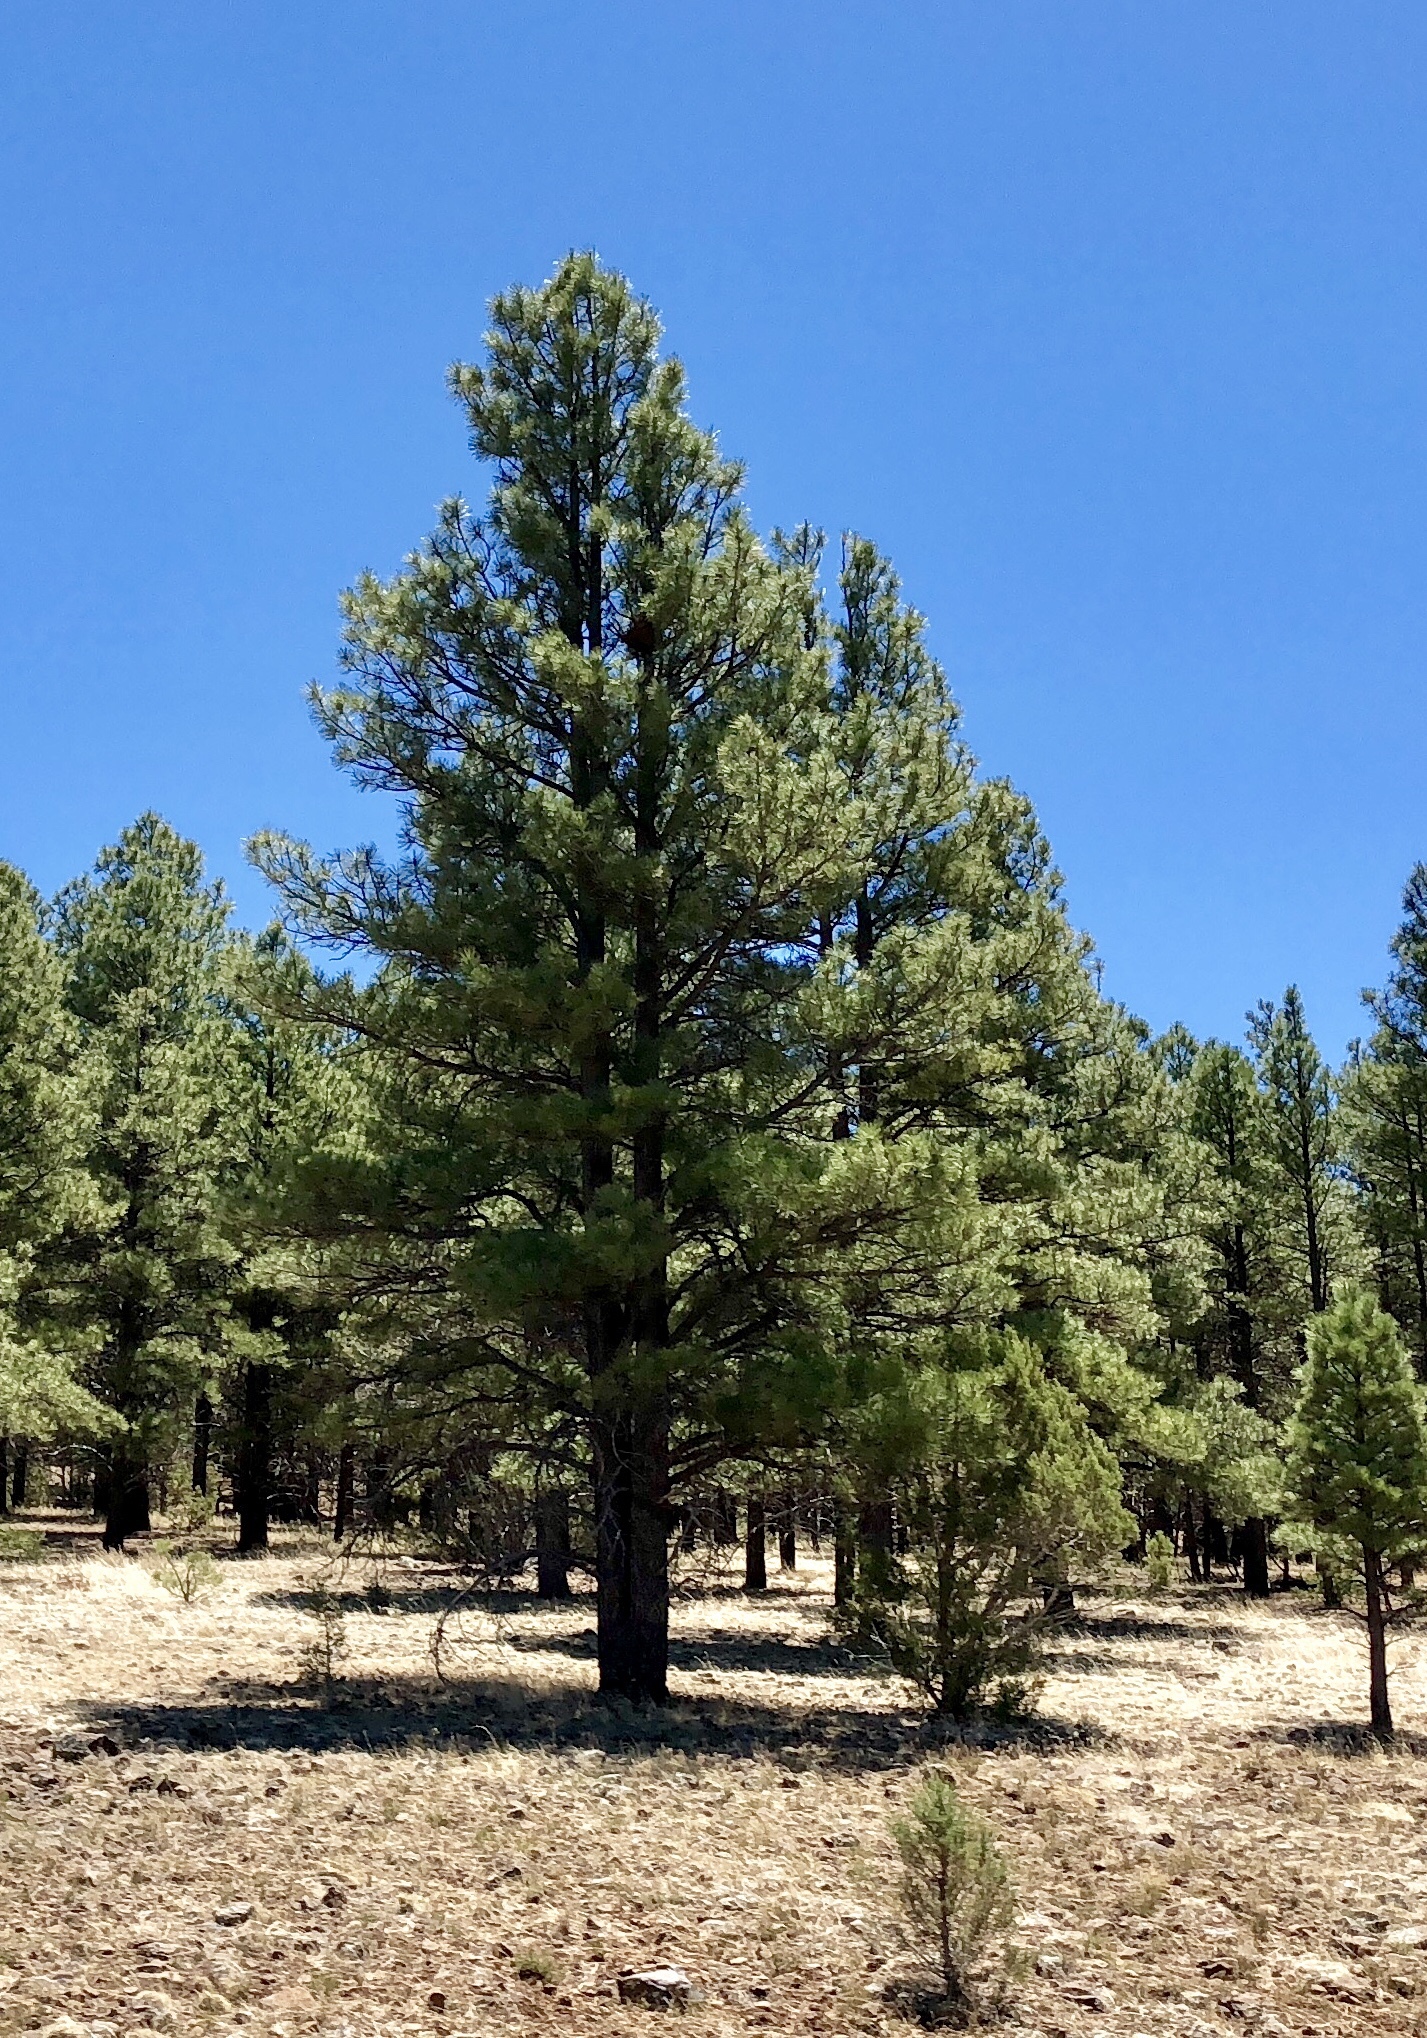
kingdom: Plantae
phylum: Tracheophyta
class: Pinopsida
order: Pinales
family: Pinaceae
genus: Pinus
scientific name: Pinus ponderosa
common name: Western yellow-pine
